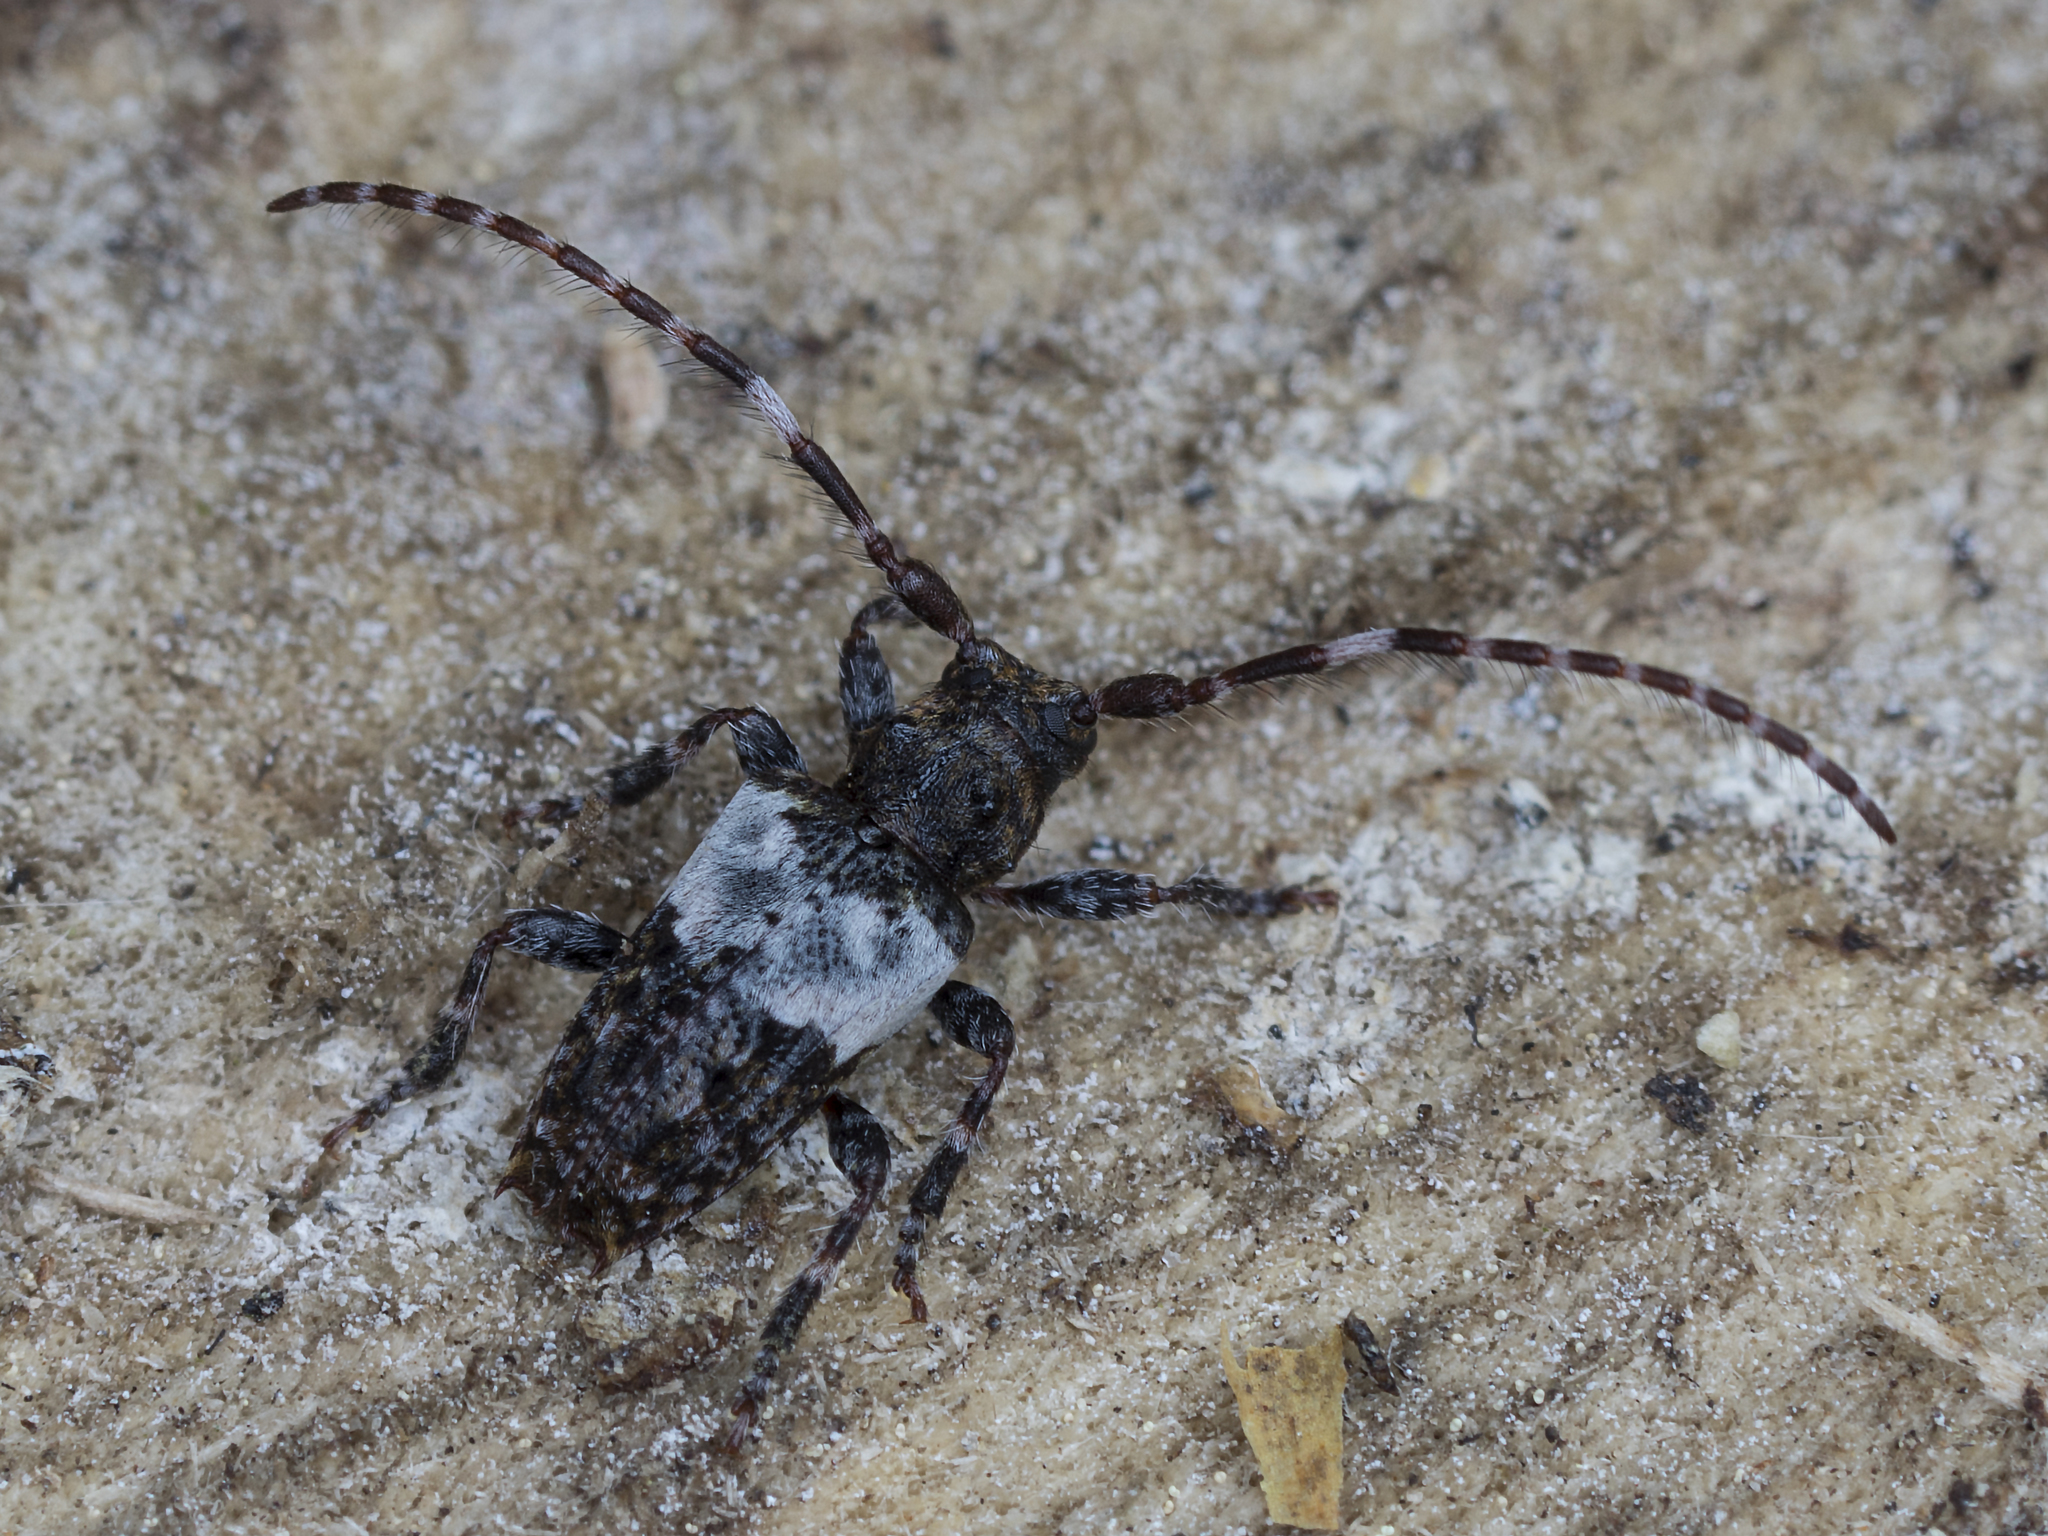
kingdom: Animalia
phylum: Arthropoda
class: Insecta
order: Coleoptera
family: Cerambycidae
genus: Pogonocherus
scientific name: Pogonocherus hispidulus
